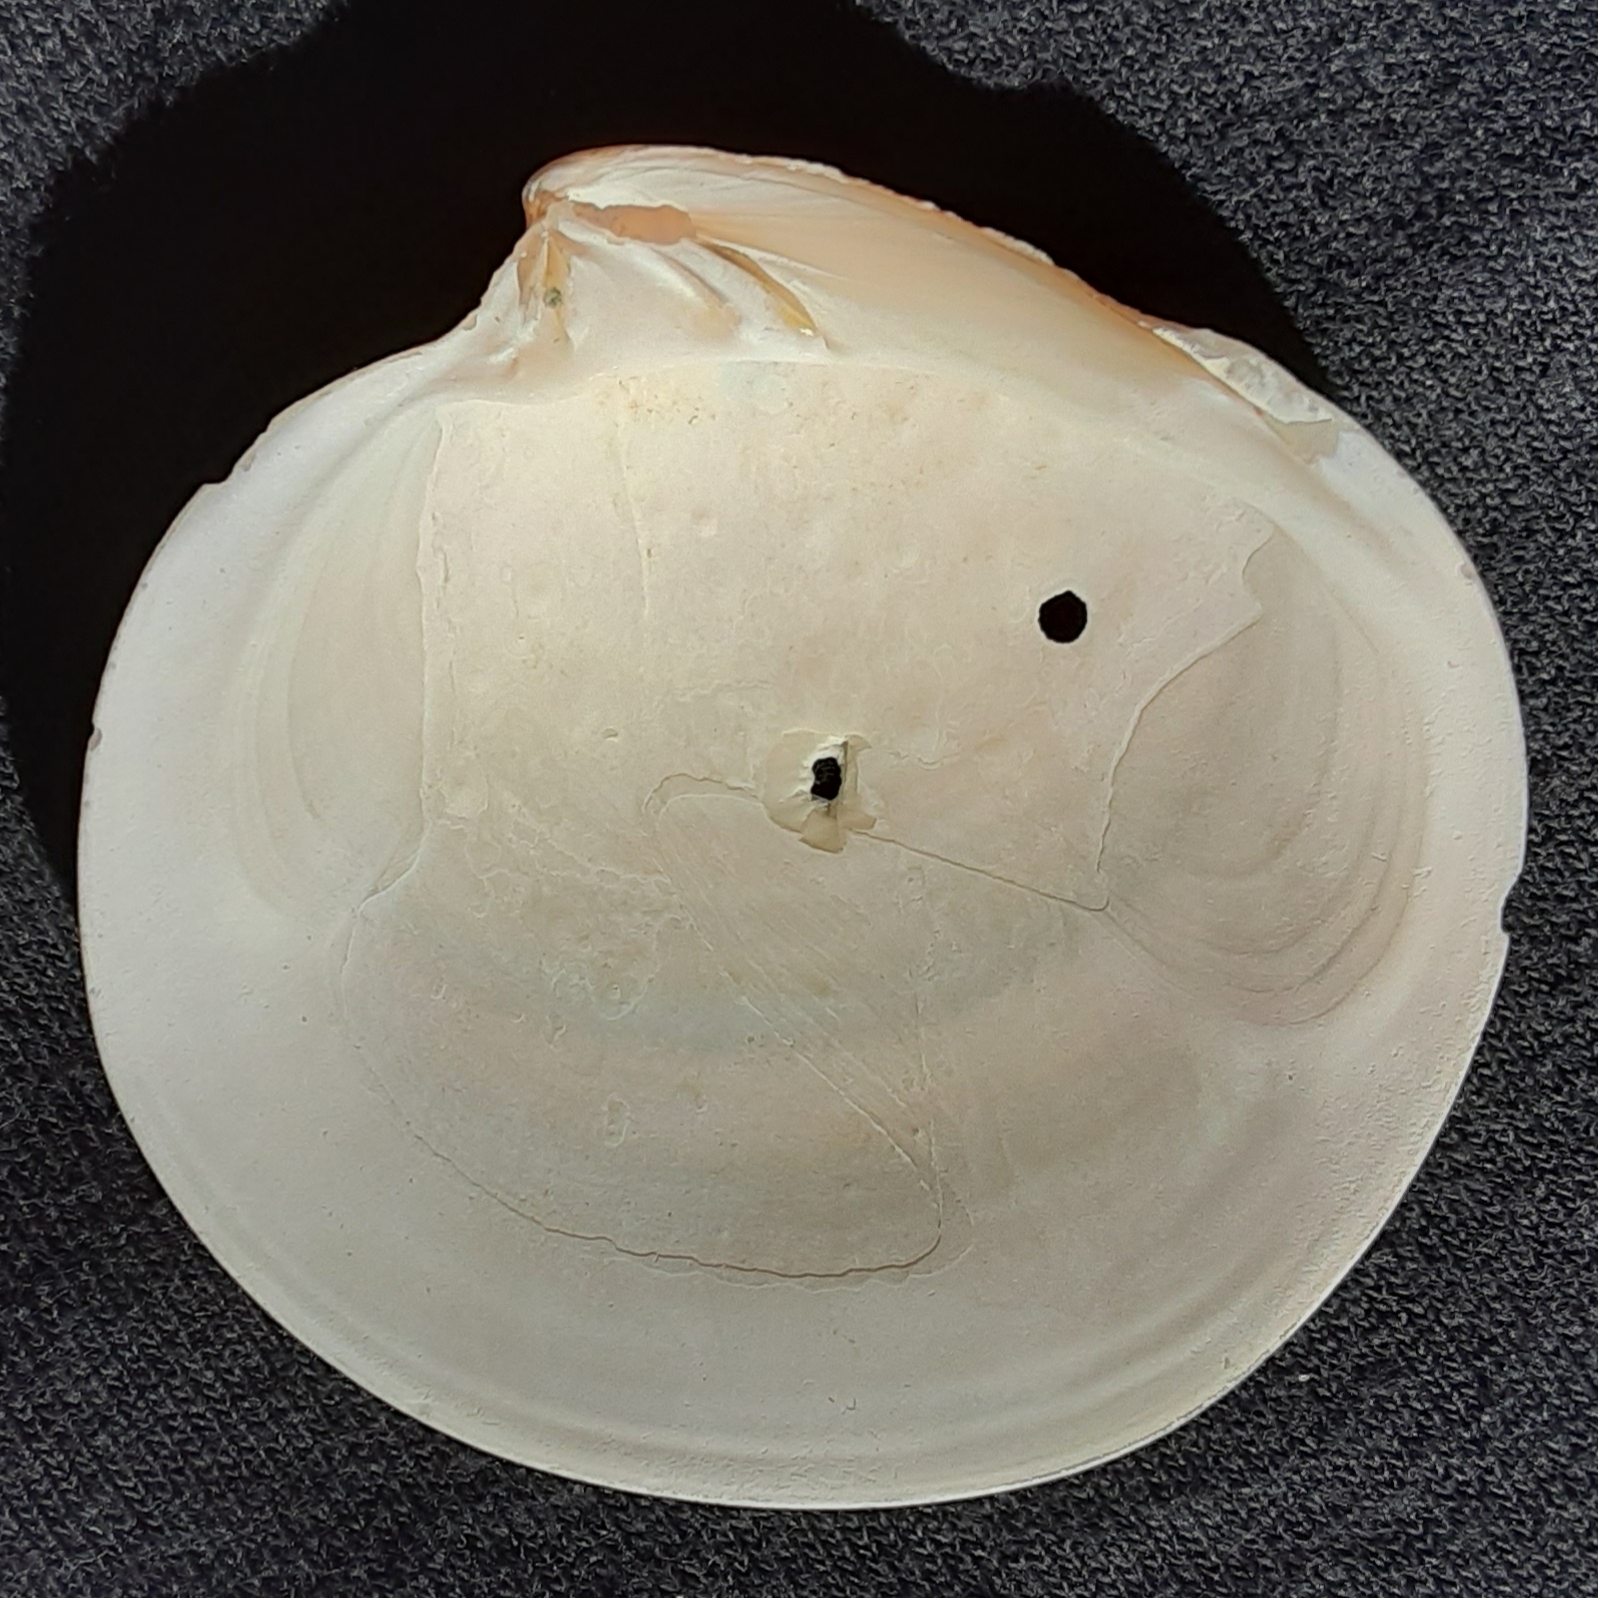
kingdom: Animalia
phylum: Mollusca
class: Bivalvia
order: Venerida
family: Veneridae
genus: Dosinia
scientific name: Dosinia discus
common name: Disk dosinia
